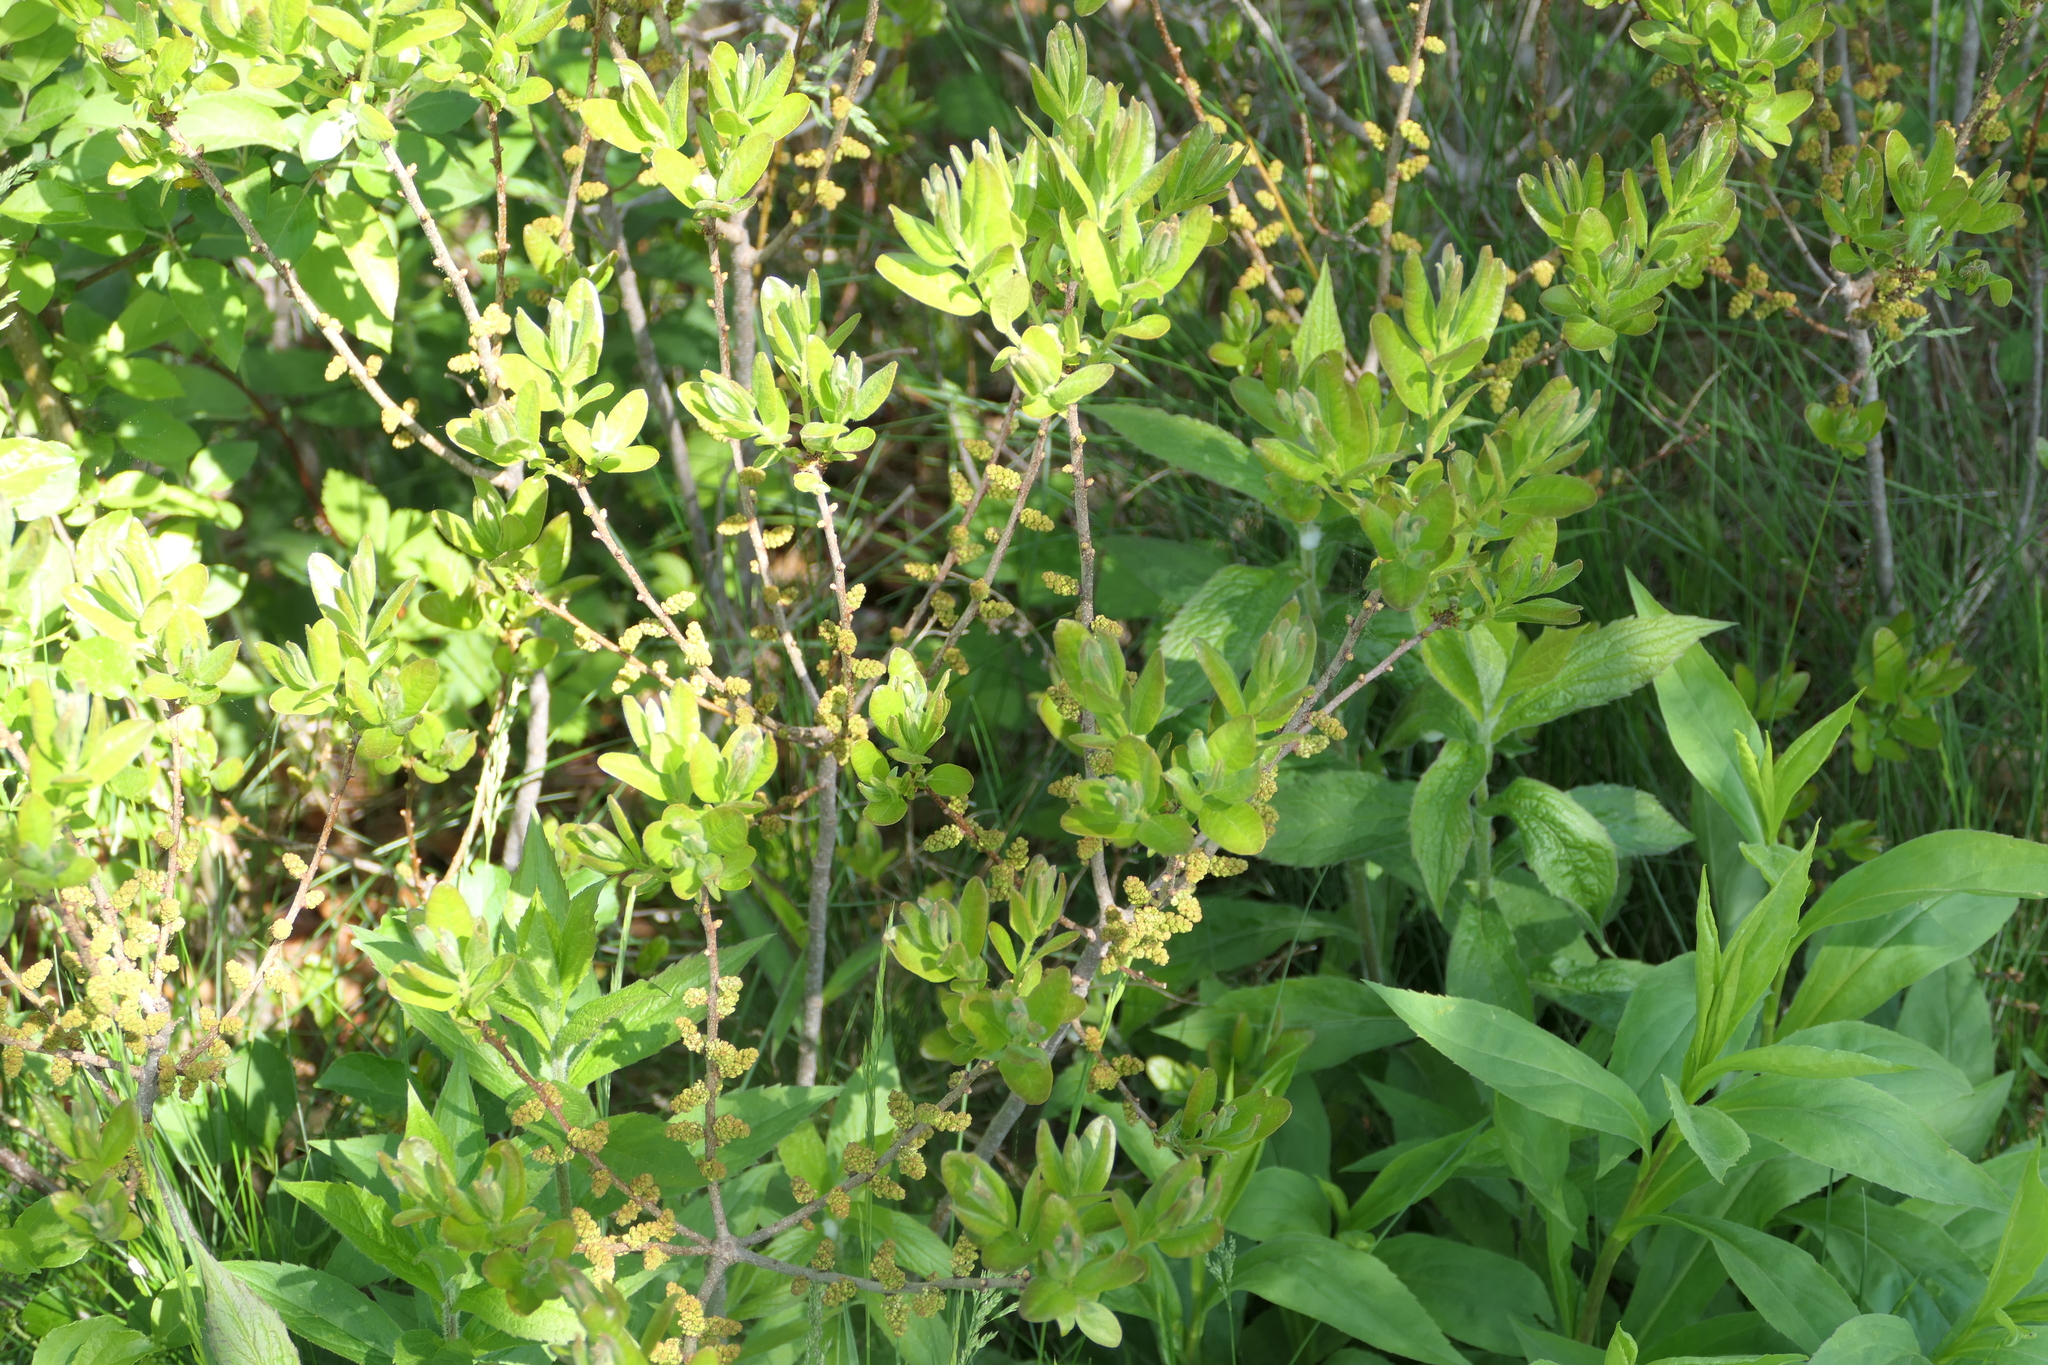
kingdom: Plantae
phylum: Tracheophyta
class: Magnoliopsida
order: Fagales
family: Myricaceae
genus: Morella
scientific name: Morella pensylvanica
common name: Northern bayberry
